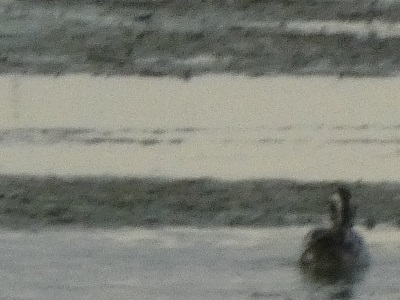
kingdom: Animalia
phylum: Chordata
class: Aves
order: Anseriformes
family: Anatidae
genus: Spatula
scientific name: Spatula querquedula
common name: Garganey
